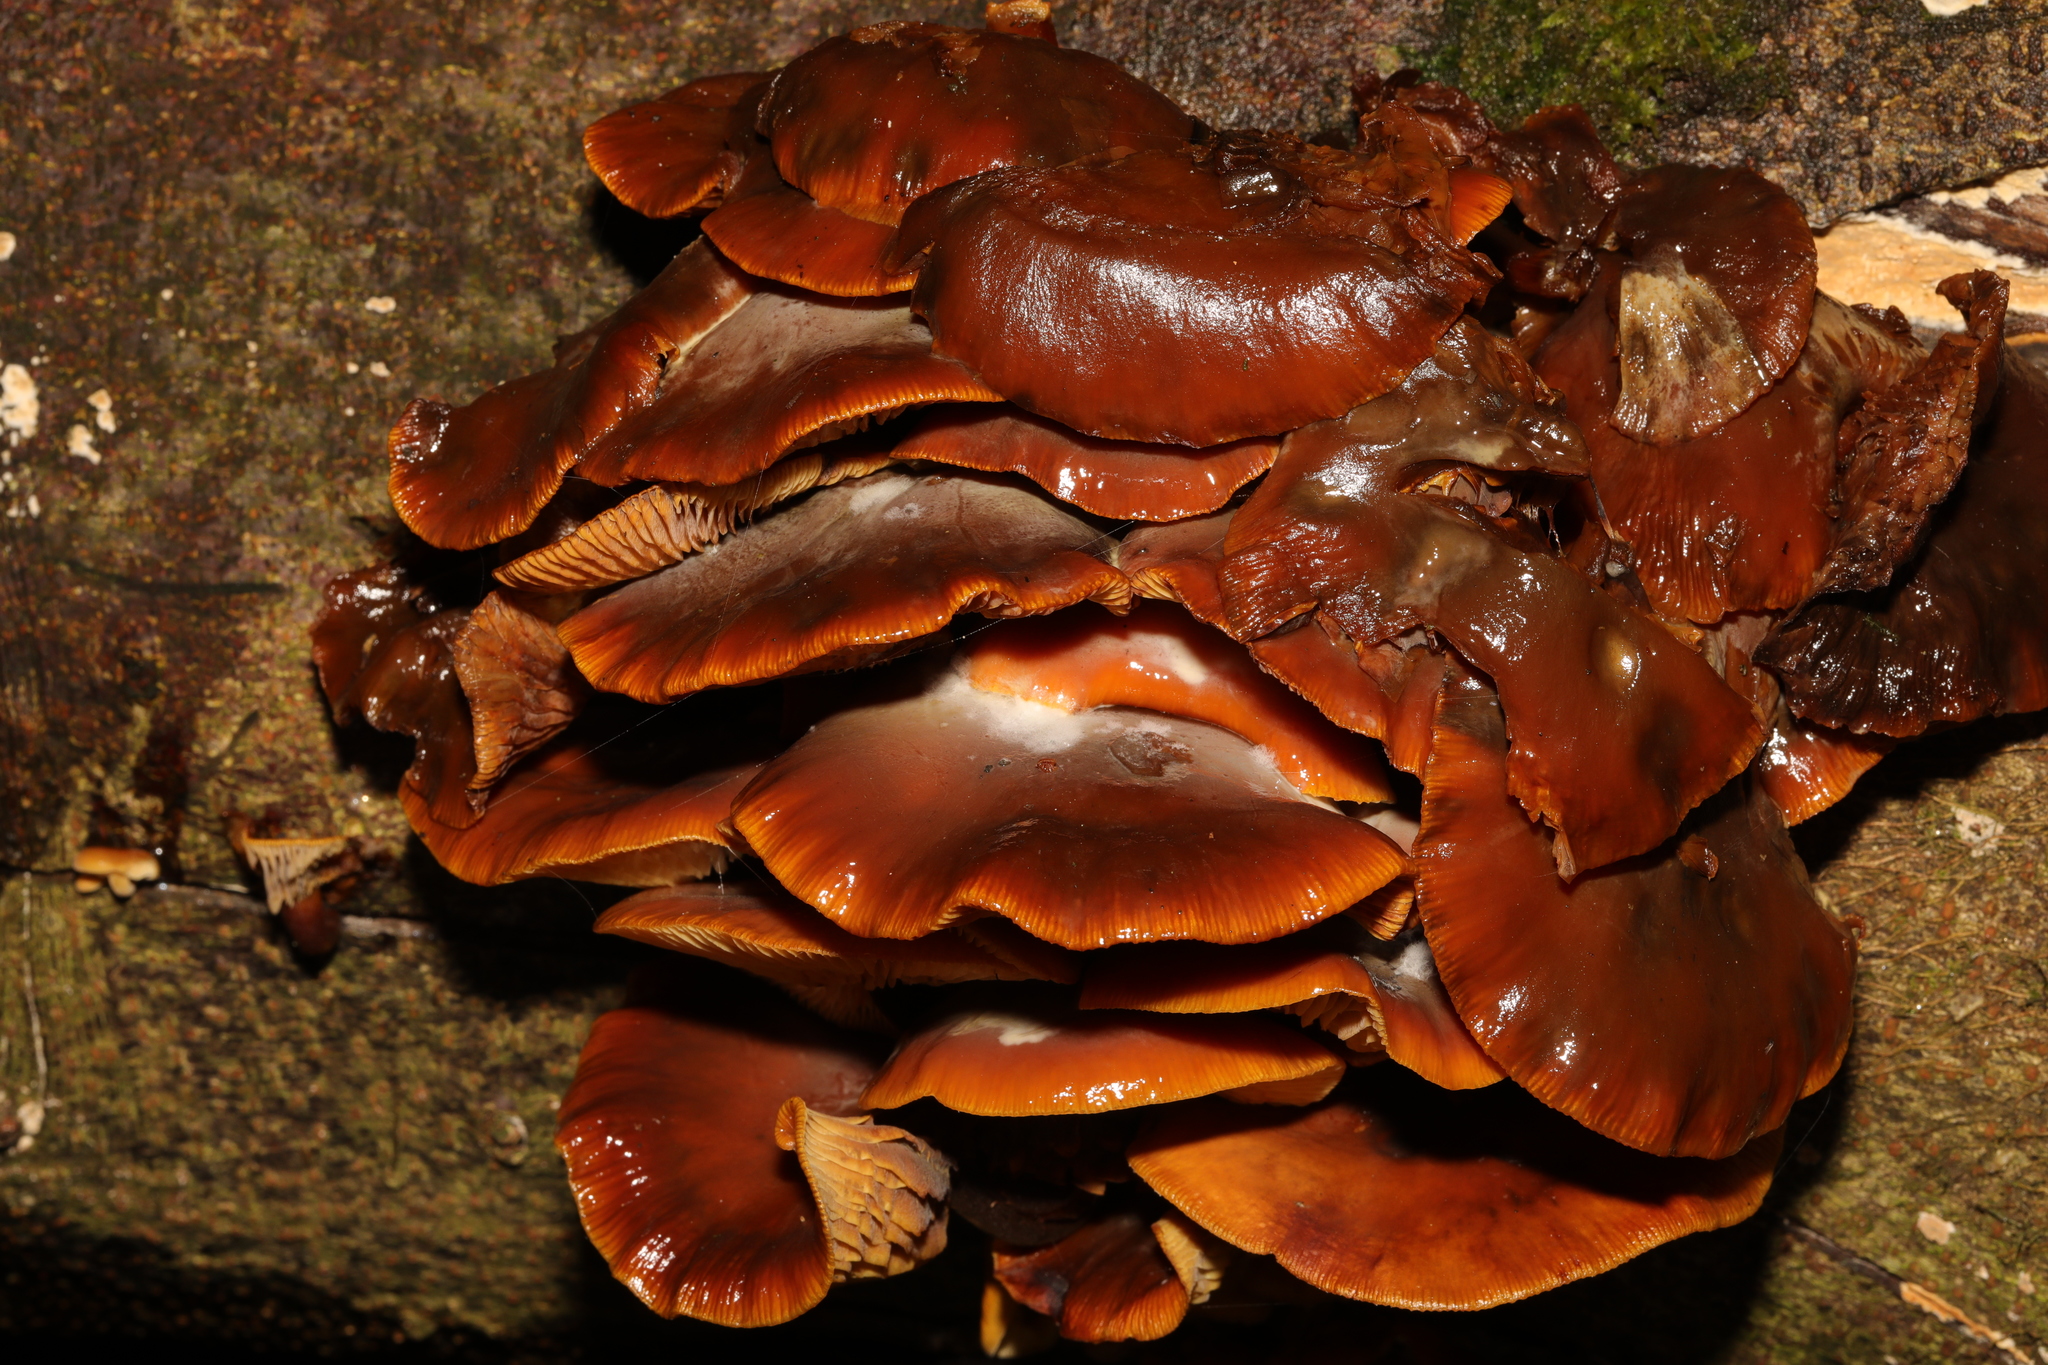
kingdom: Fungi
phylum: Basidiomycota
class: Agaricomycetes
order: Agaricales
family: Physalacriaceae
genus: Flammulina
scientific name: Flammulina
